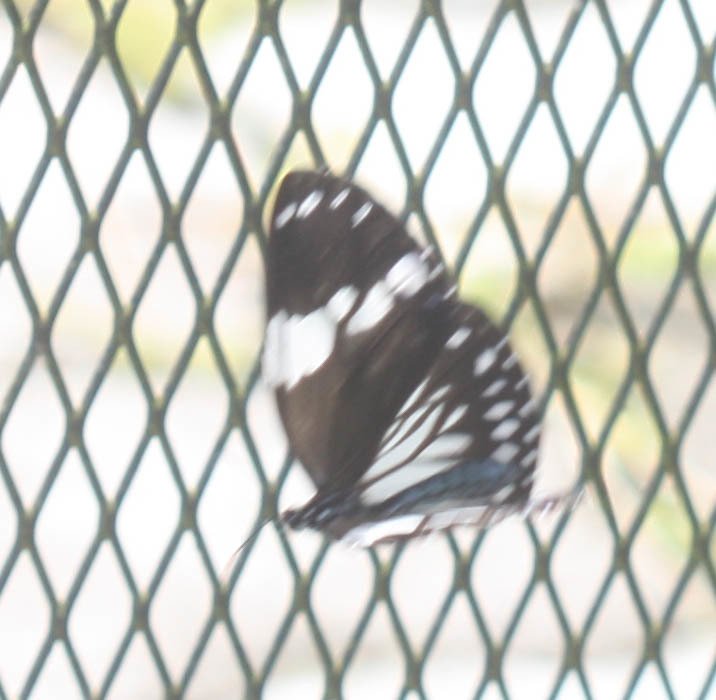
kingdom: Animalia
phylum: Arthropoda
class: Insecta
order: Lepidoptera
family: Nymphalidae
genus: Euploea
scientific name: Euploea radamanthus
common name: Magpie crow butterfly
